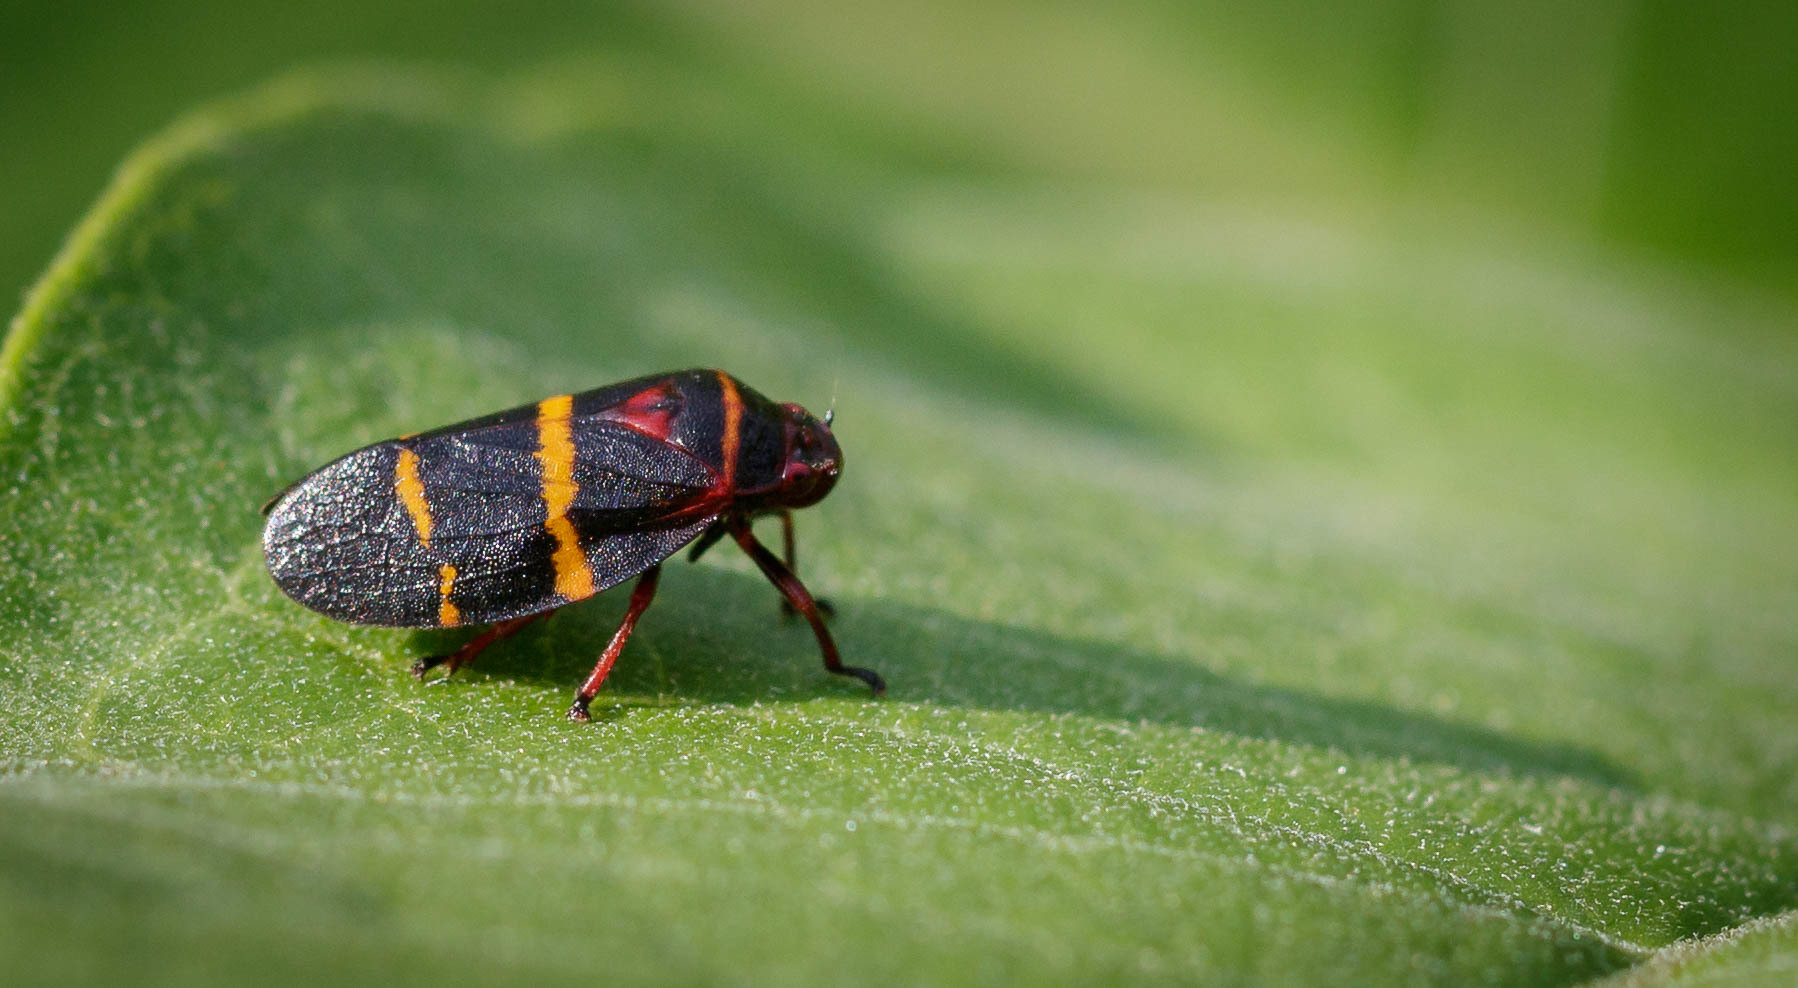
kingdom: Animalia
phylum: Arthropoda
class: Insecta
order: Hemiptera
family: Cercopidae
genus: Prosapia
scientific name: Prosapia bicincta
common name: Twolined spittlebug
